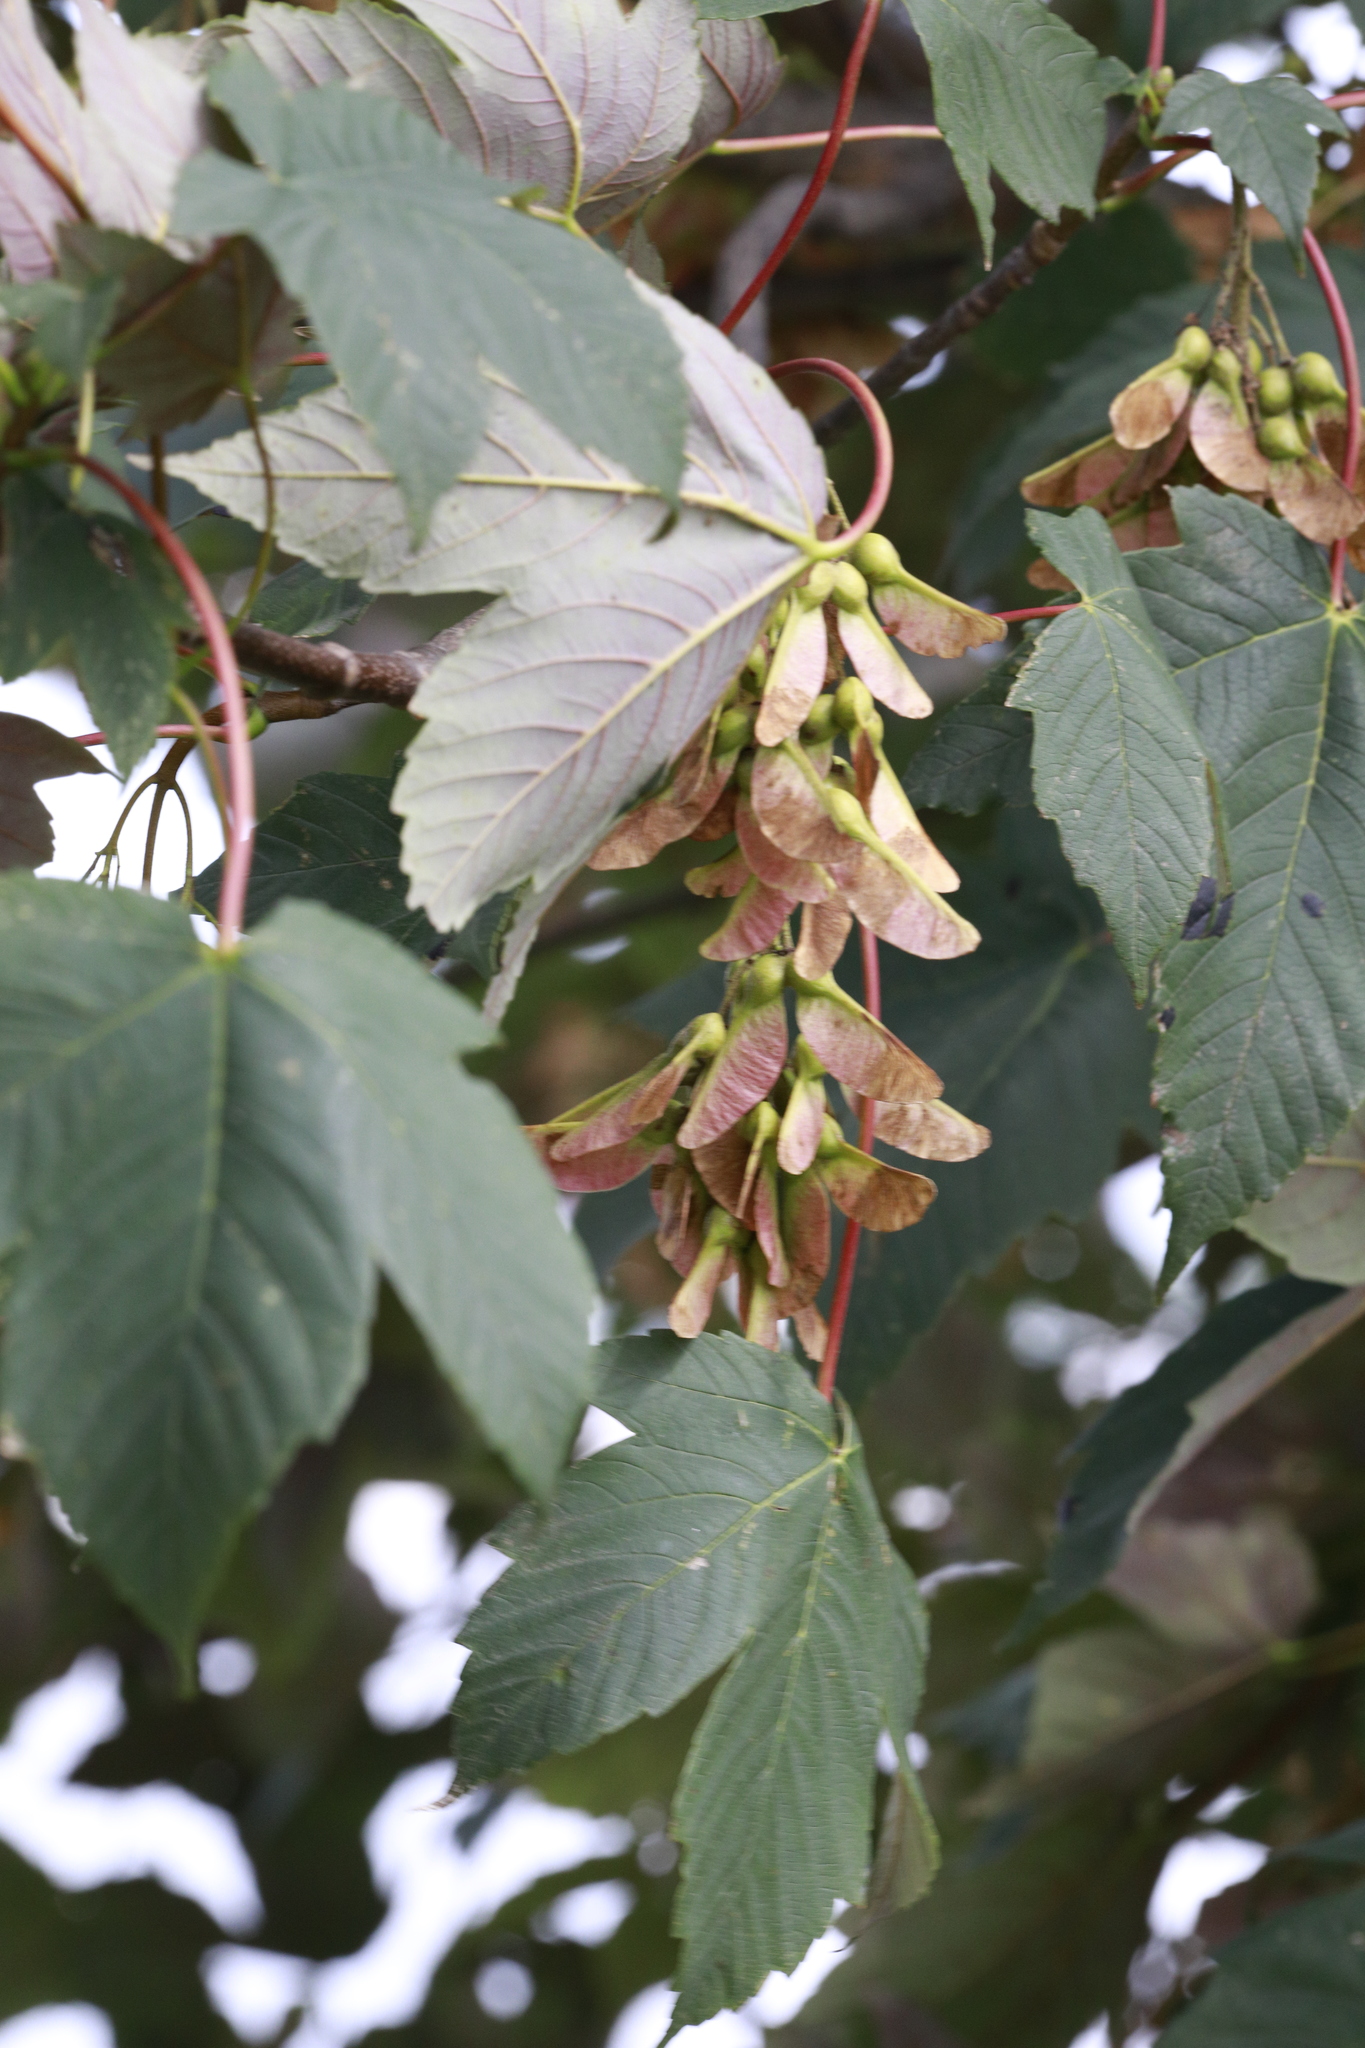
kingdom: Plantae
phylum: Tracheophyta
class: Magnoliopsida
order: Sapindales
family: Sapindaceae
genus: Acer
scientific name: Acer pseudoplatanus
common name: Sycamore
